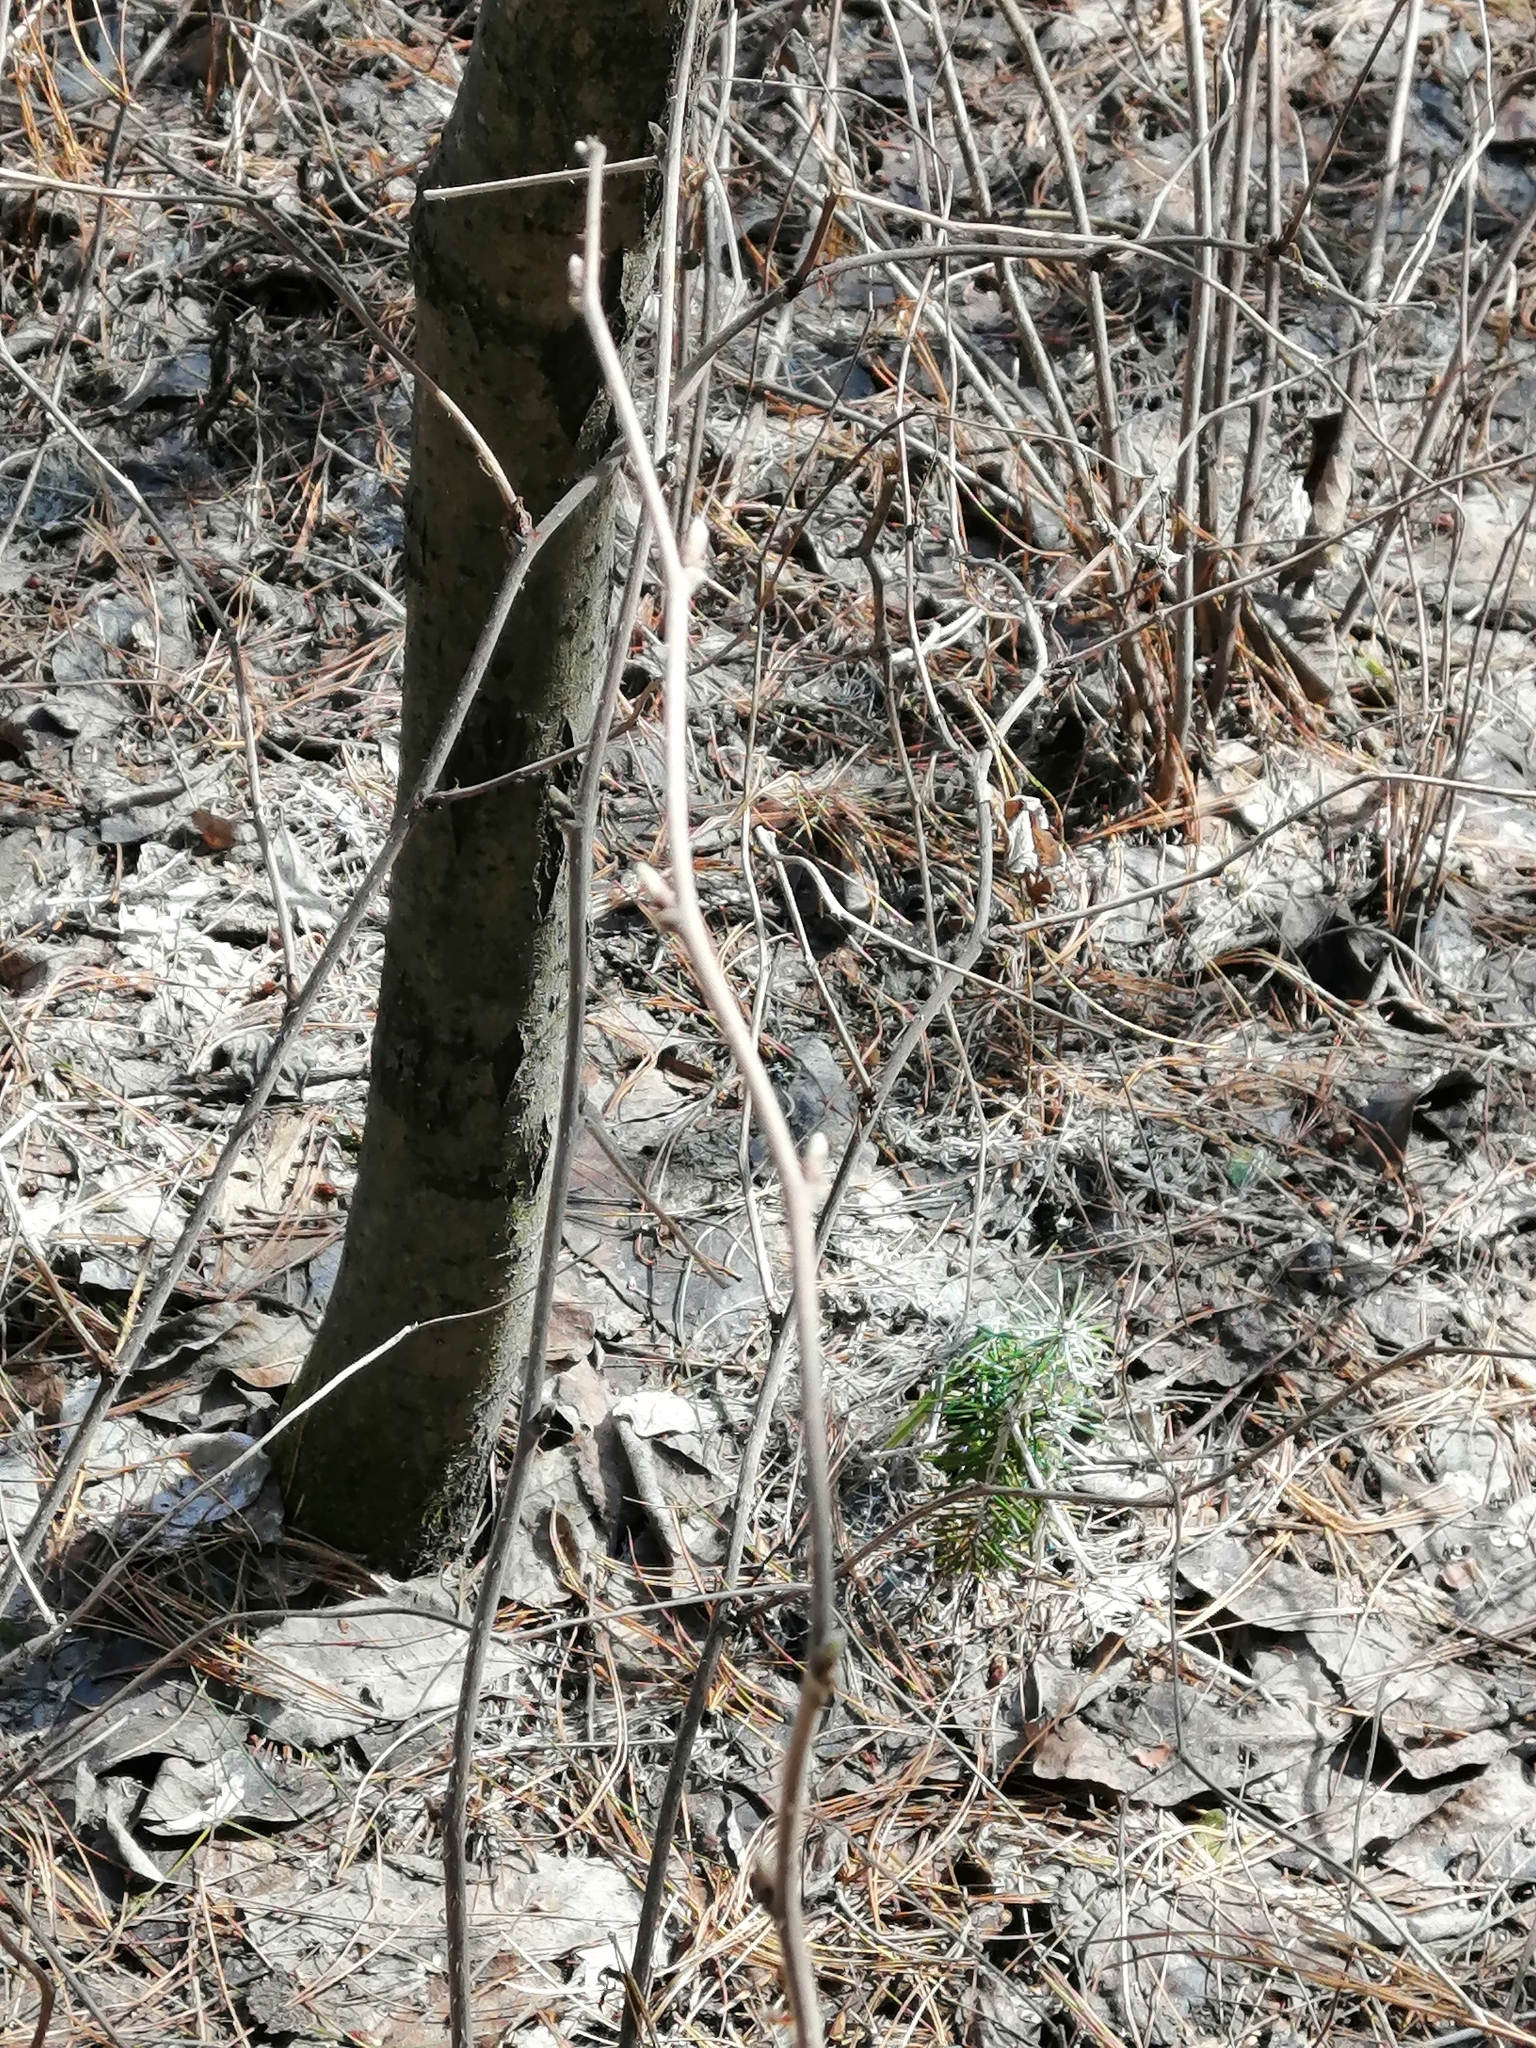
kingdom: Plantae
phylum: Tracheophyta
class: Magnoliopsida
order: Malpighiales
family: Salicaceae
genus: Populus
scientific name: Populus tremula
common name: European aspen
